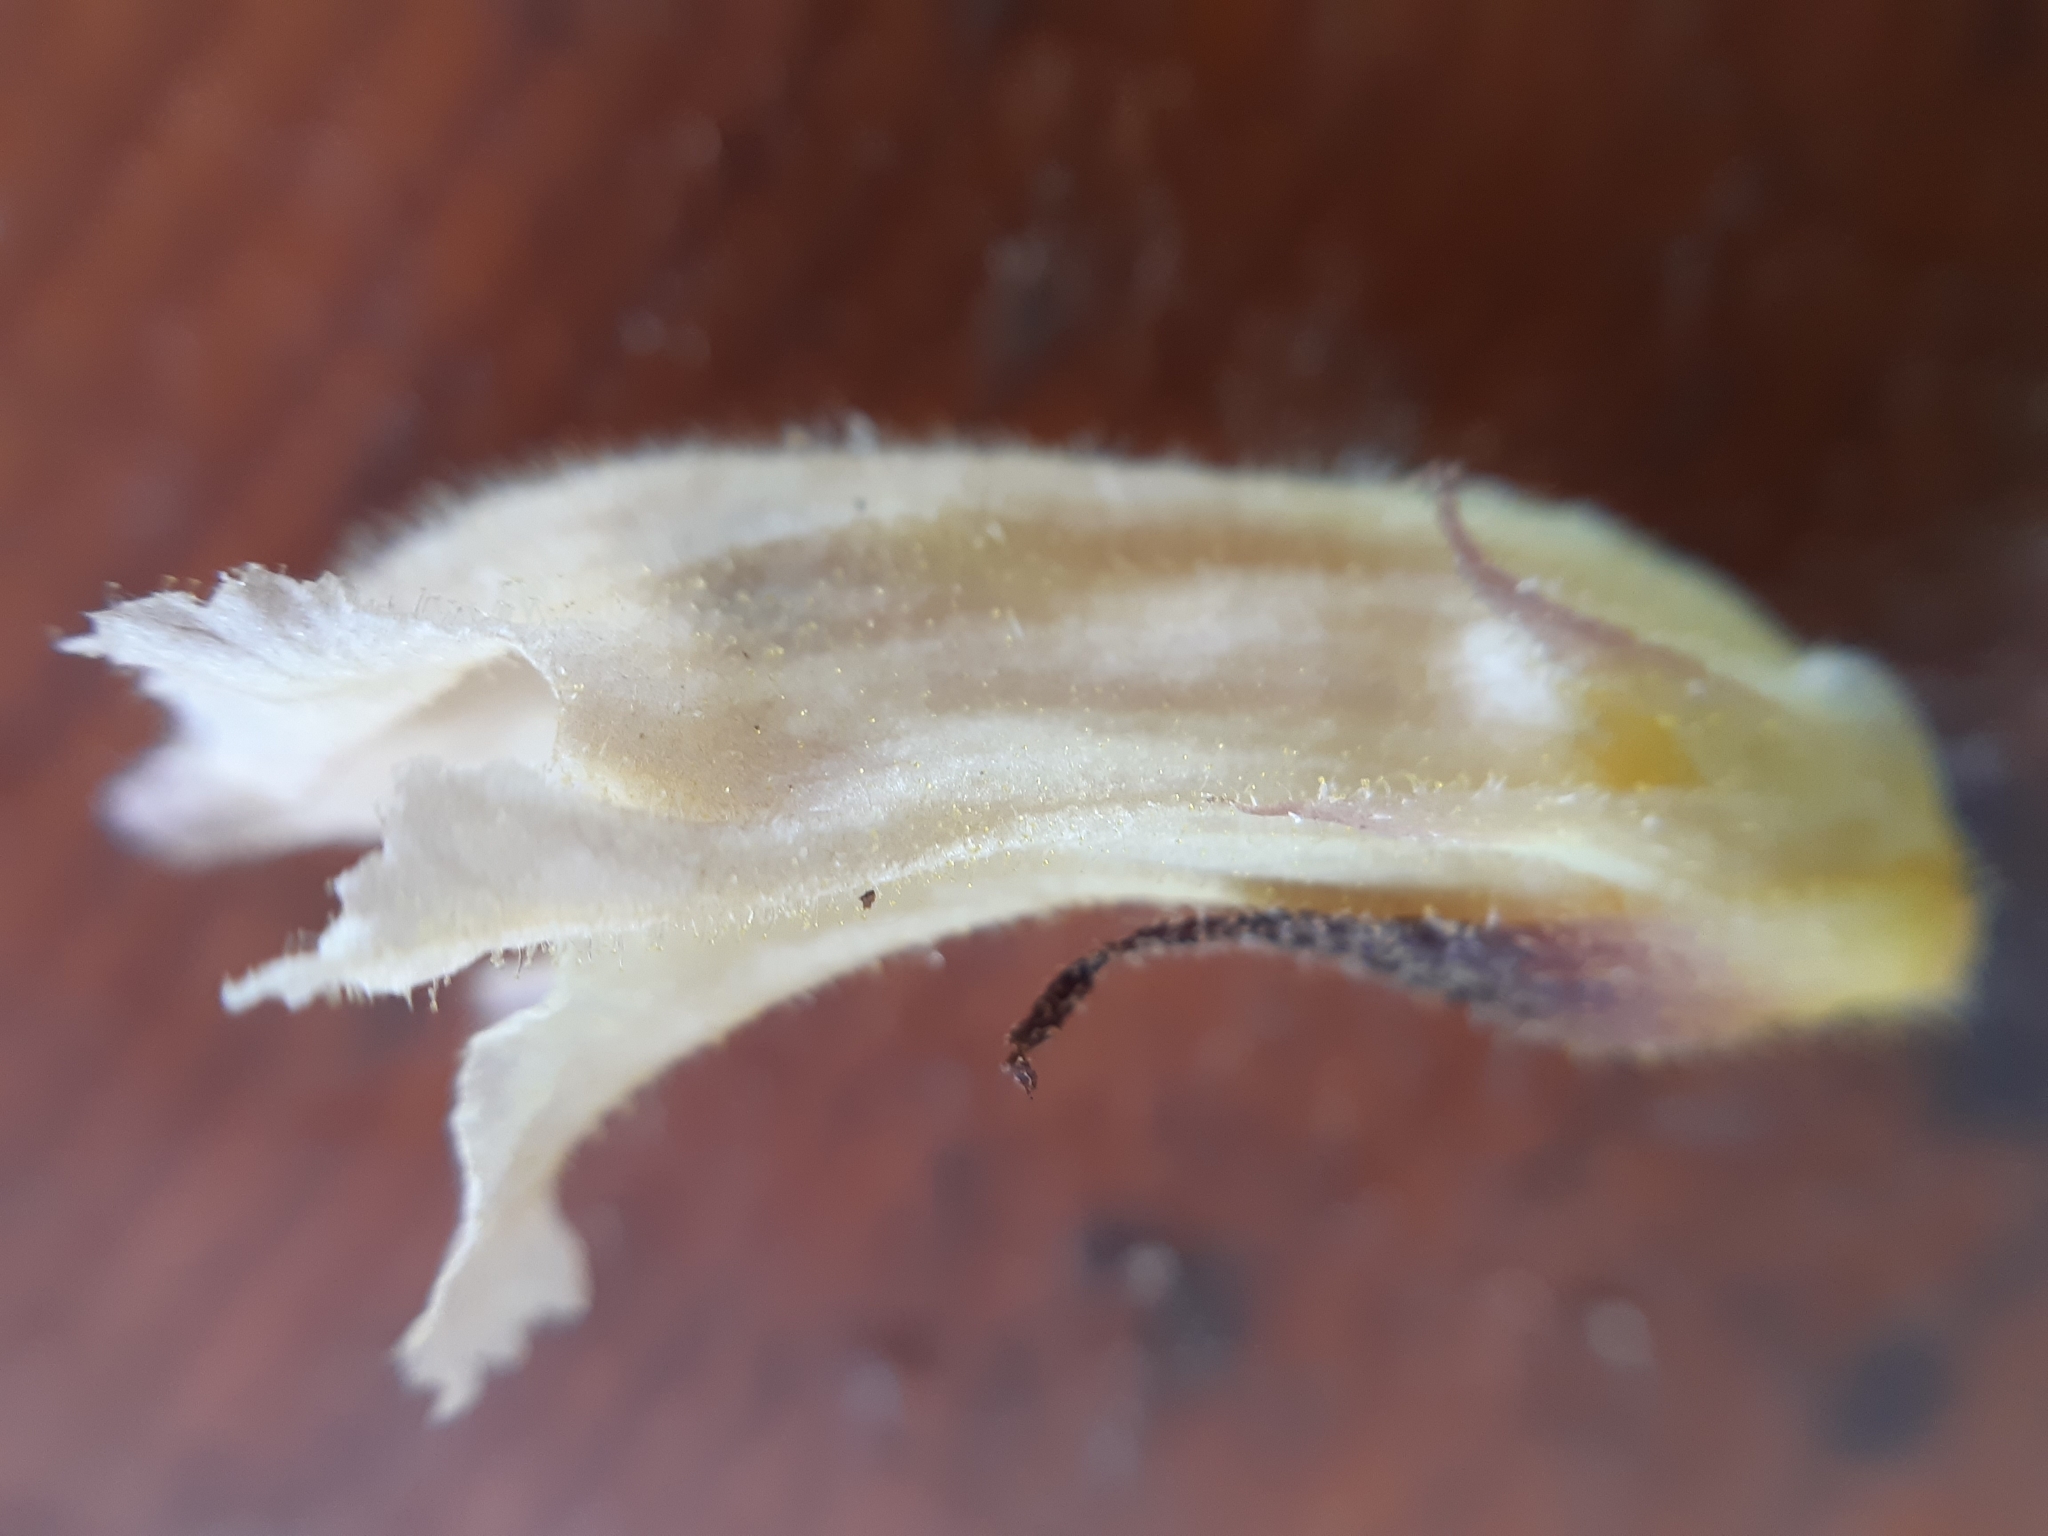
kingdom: Plantae
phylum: Tracheophyta
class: Magnoliopsida
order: Lamiales
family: Orobanchaceae
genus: Orobanche
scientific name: Orobanche lutea
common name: Yellow broomrape
